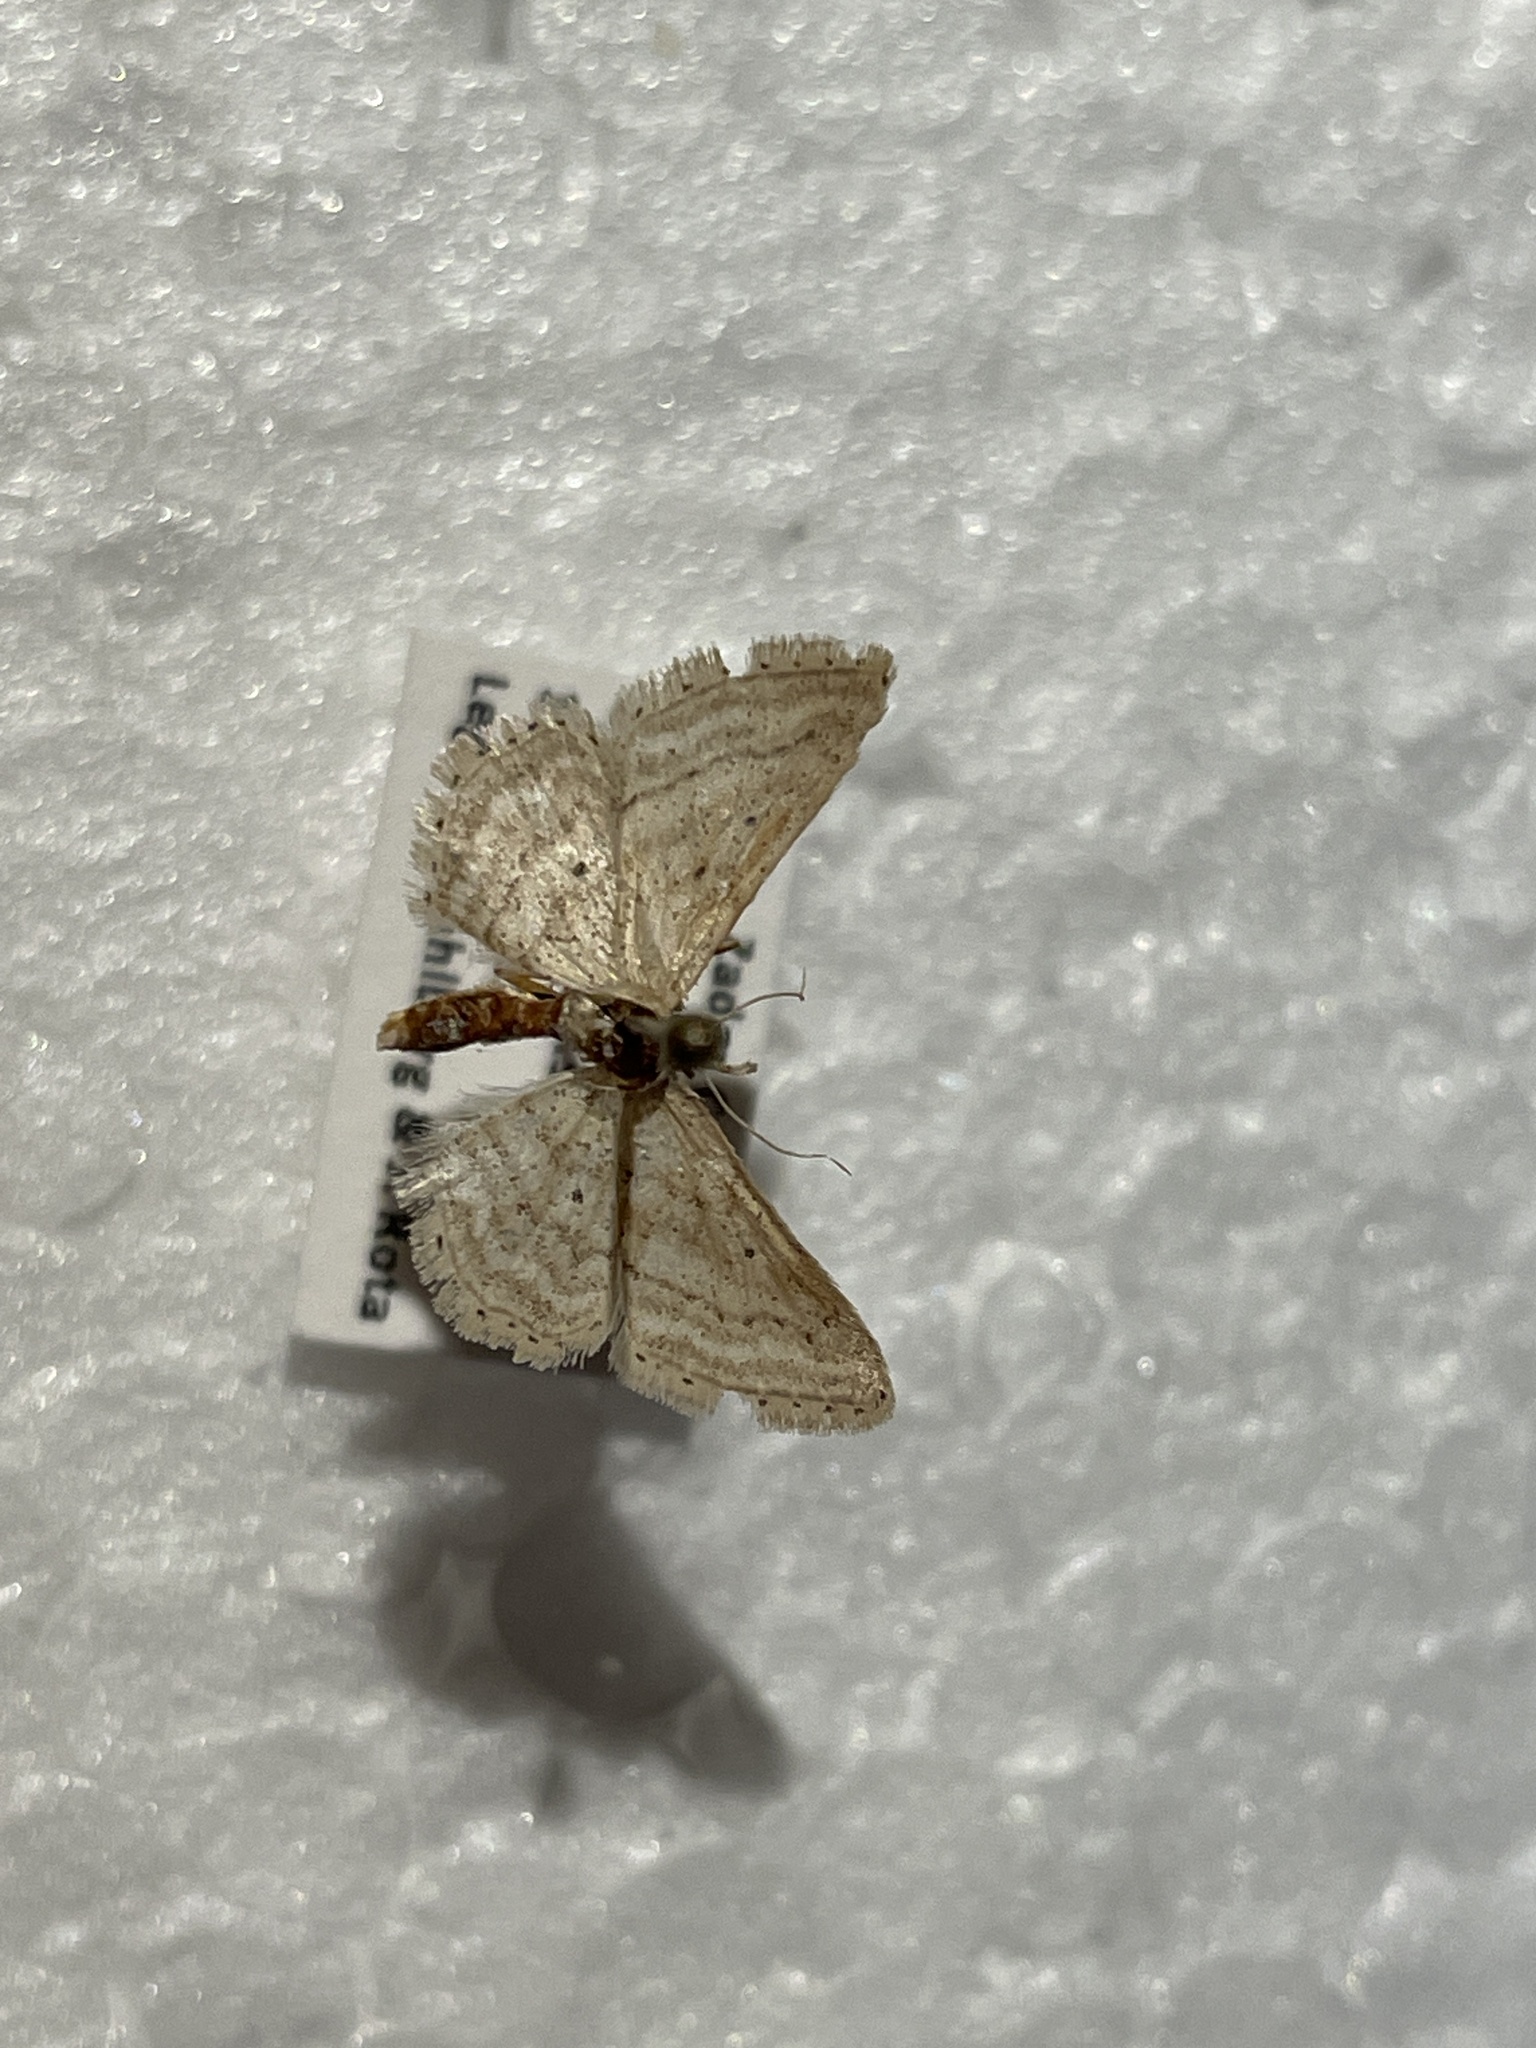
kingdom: Animalia
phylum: Arthropoda
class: Insecta
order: Lepidoptera
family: Geometridae
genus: Idaea
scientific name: Idaea elongaria
